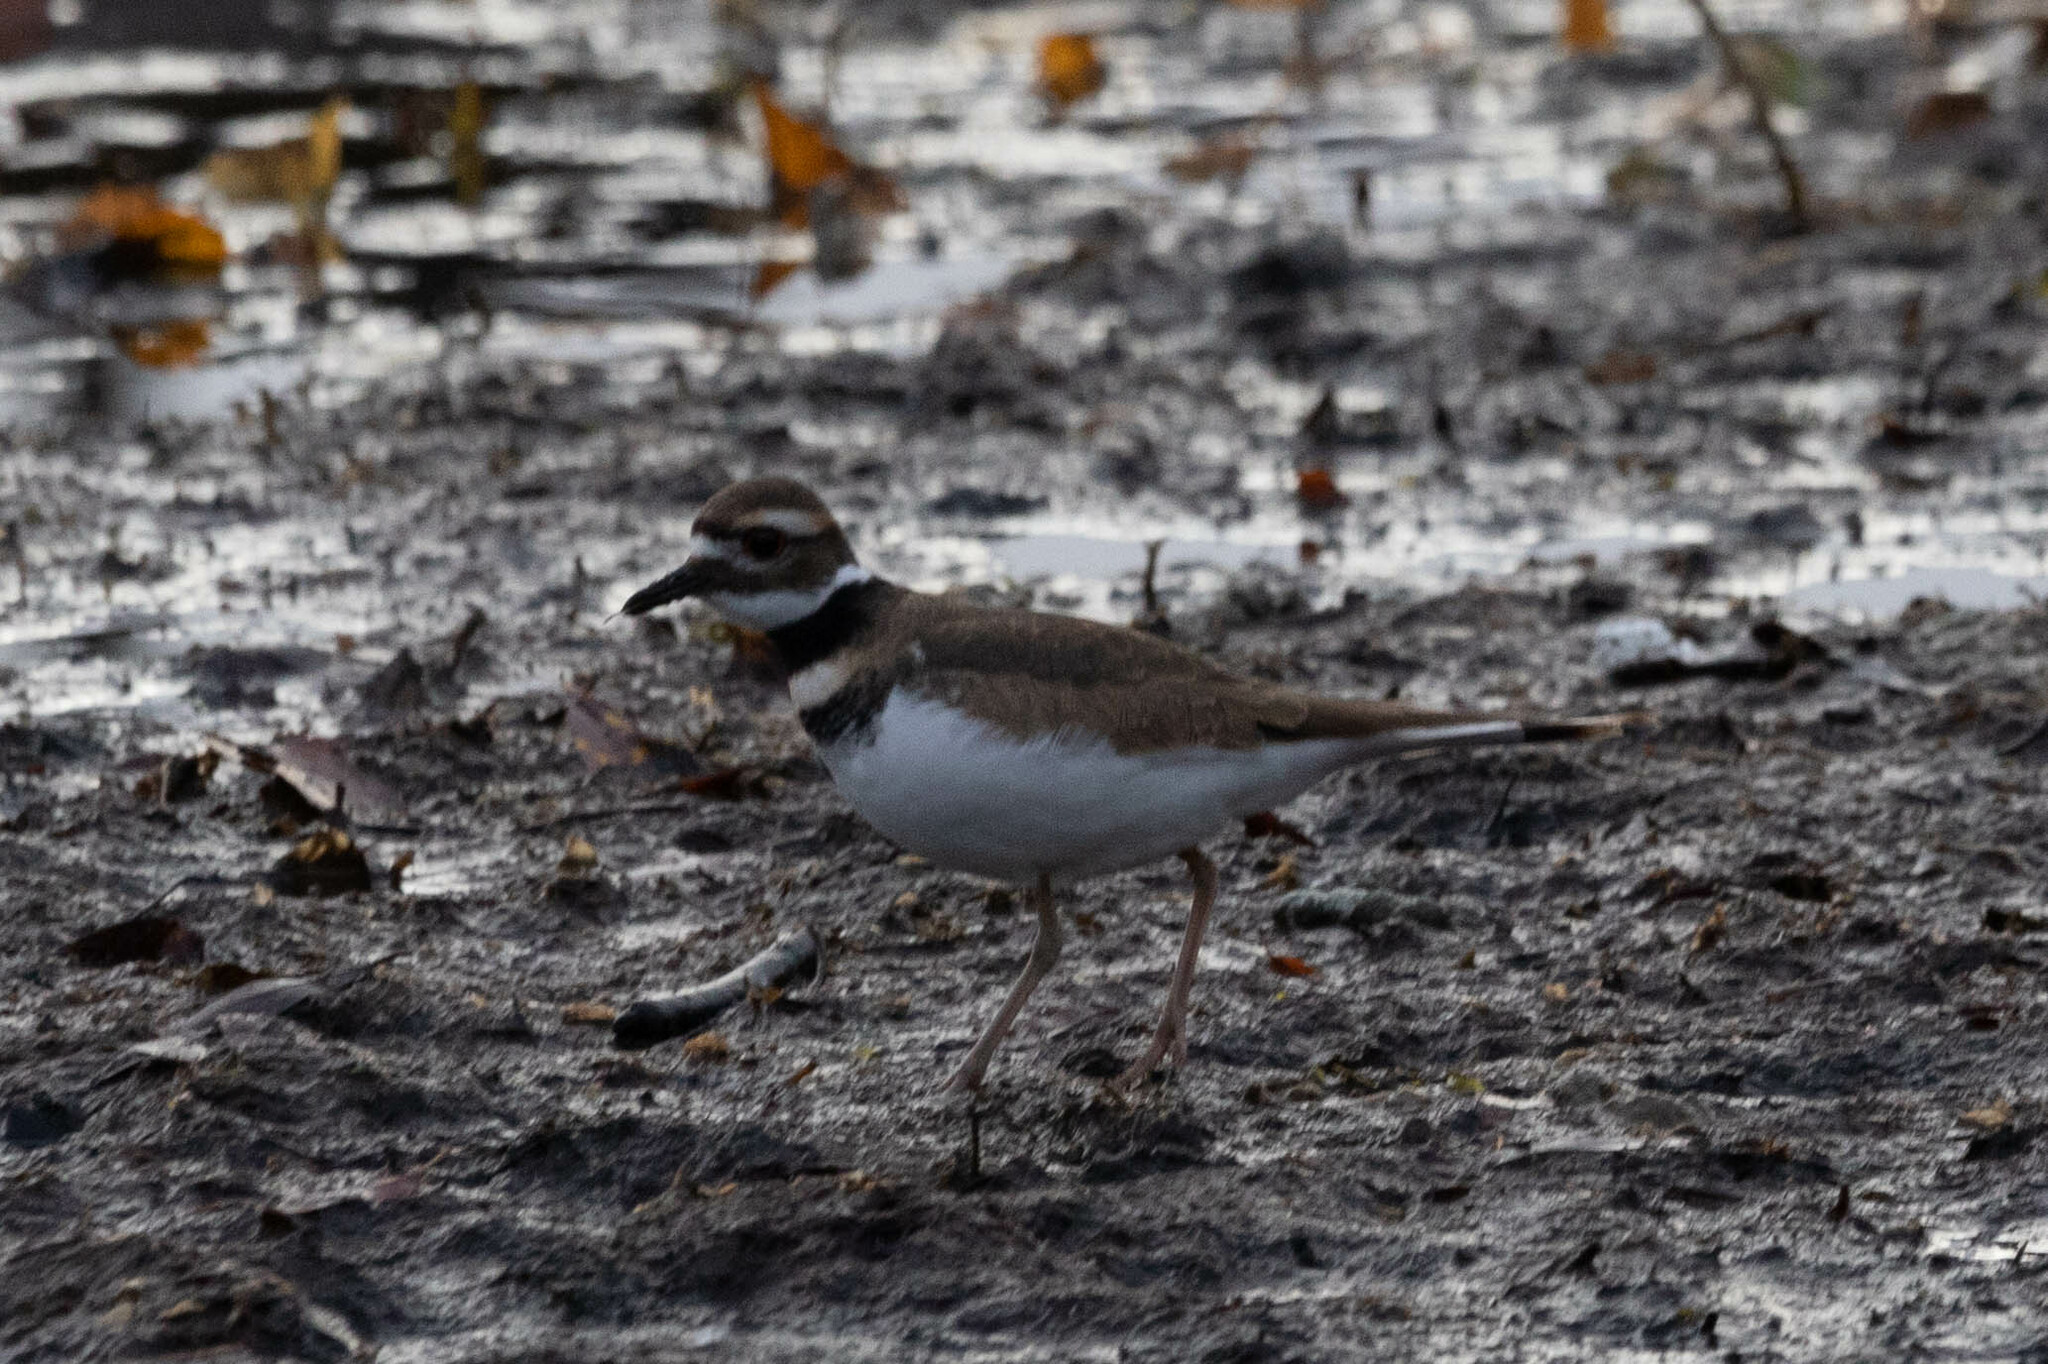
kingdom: Animalia
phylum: Chordata
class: Aves
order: Charadriiformes
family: Charadriidae
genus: Charadrius
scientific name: Charadrius vociferus
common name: Killdeer
